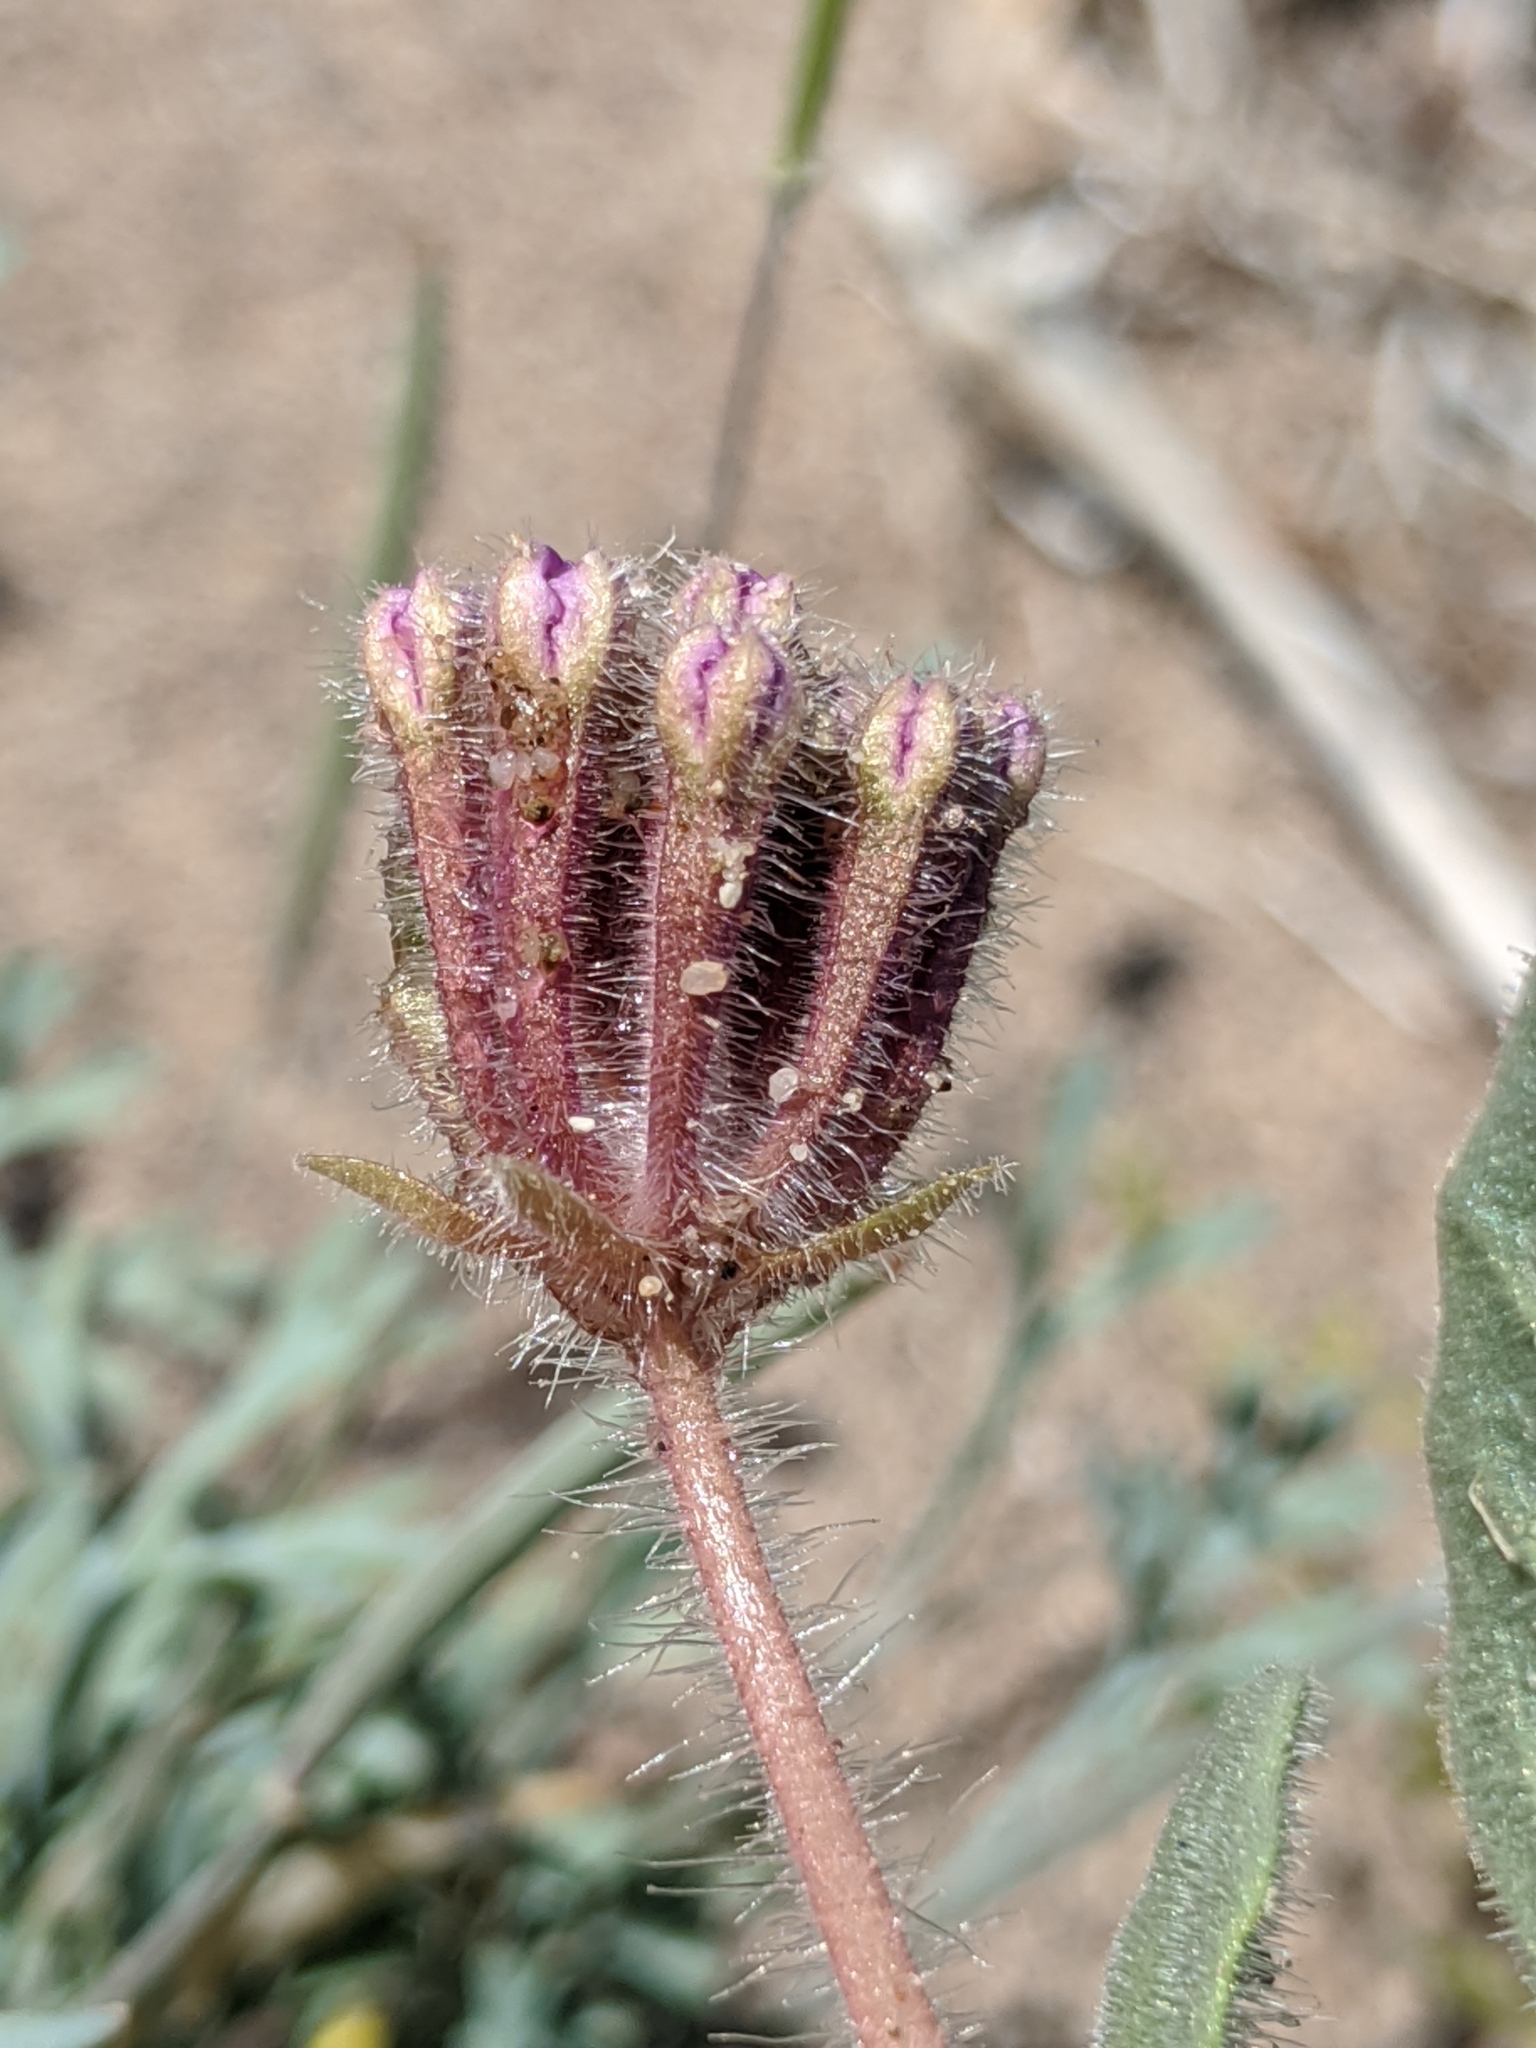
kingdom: Plantae
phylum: Tracheophyta
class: Magnoliopsida
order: Caryophyllales
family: Nyctaginaceae
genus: Abronia
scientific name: Abronia villosa
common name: Desert sand-verbena
